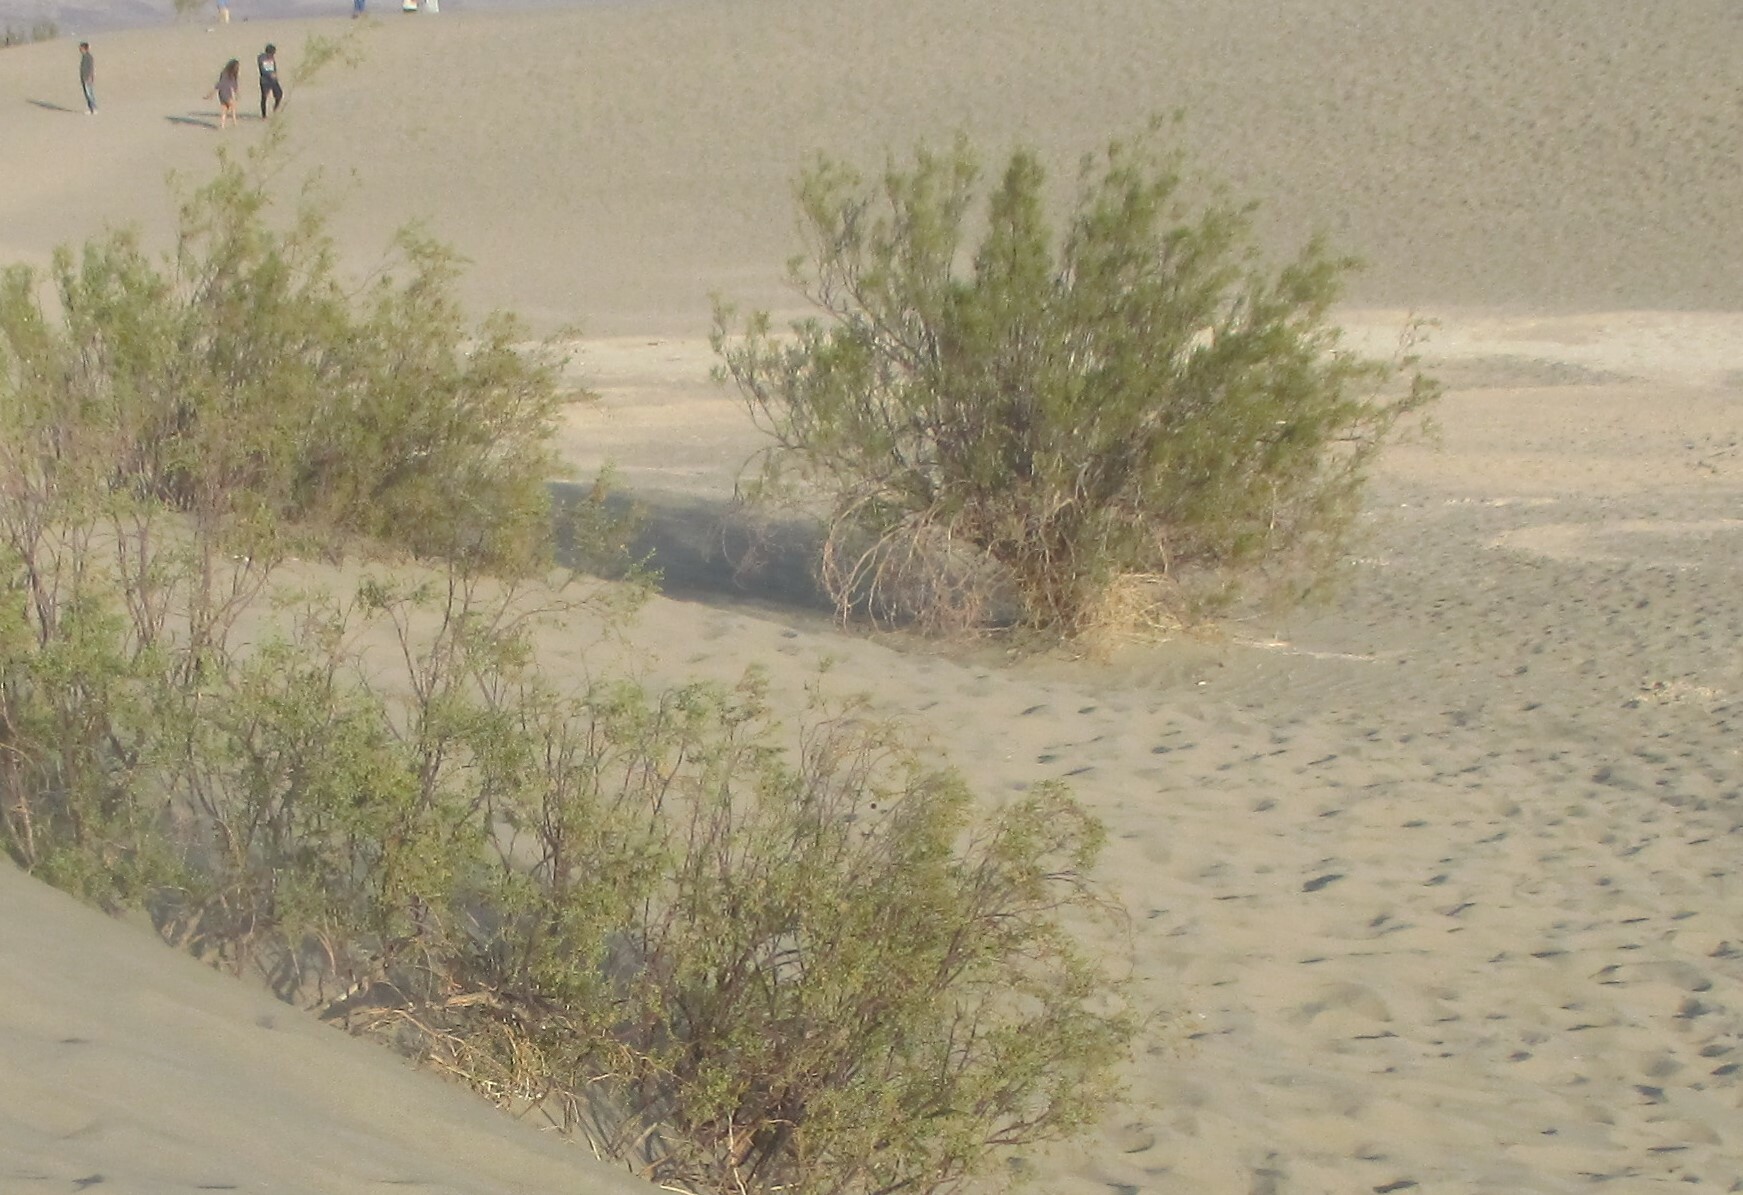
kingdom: Plantae
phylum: Tracheophyta
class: Magnoliopsida
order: Zygophyllales
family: Zygophyllaceae
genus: Larrea
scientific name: Larrea tridentata
